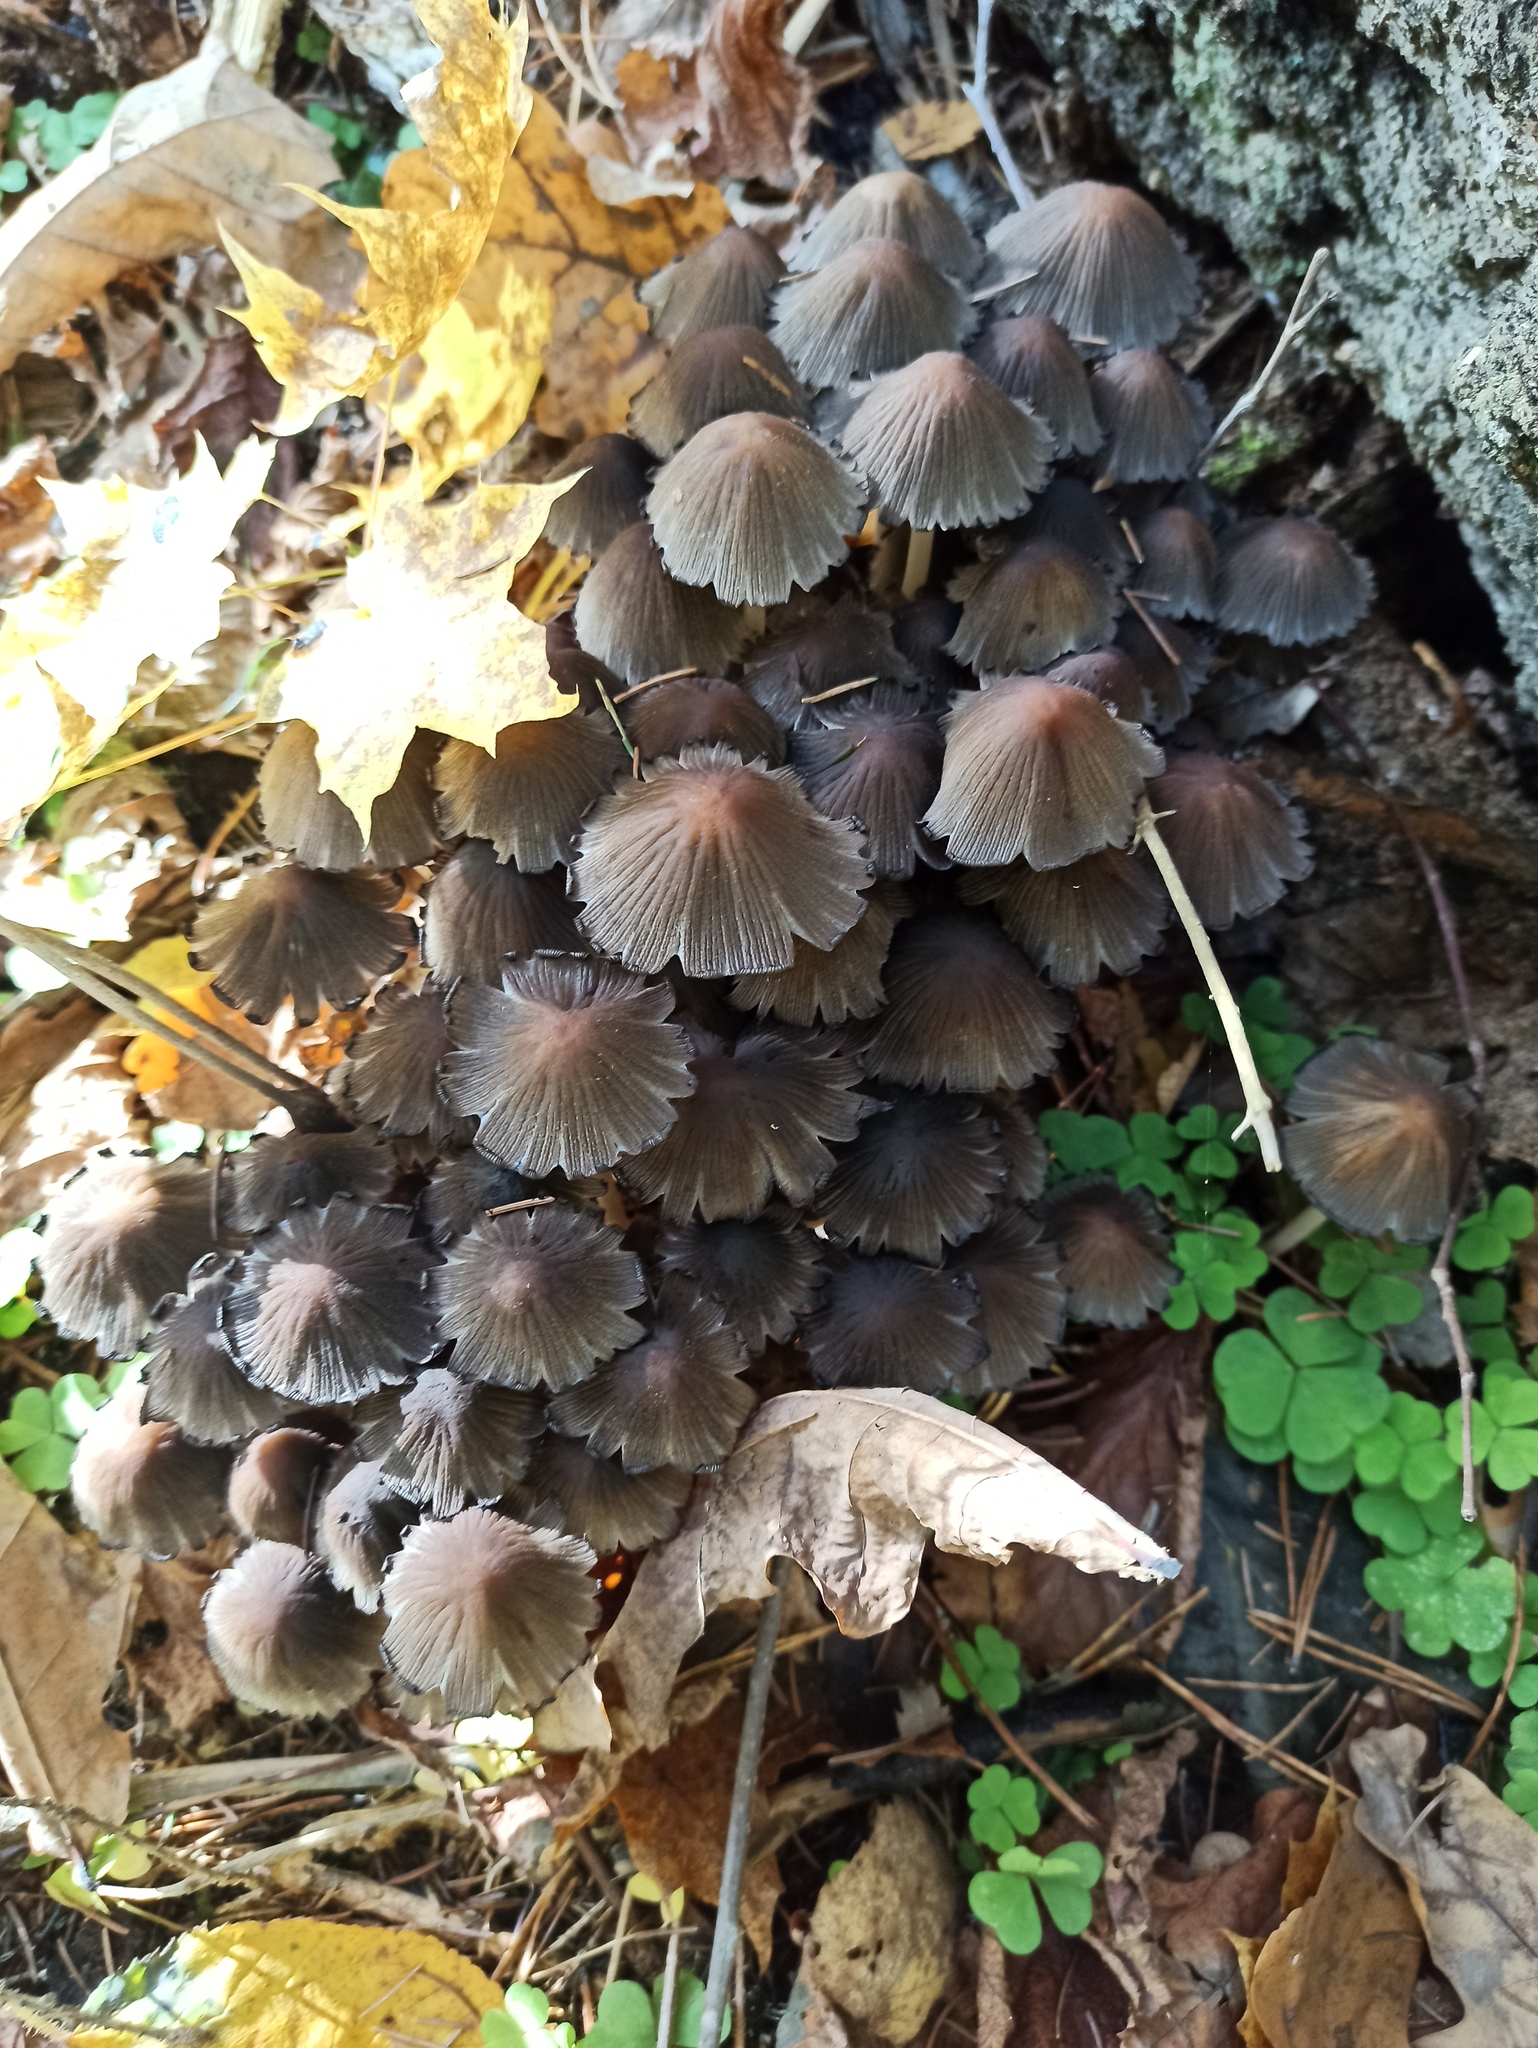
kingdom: Fungi
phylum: Basidiomycota
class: Agaricomycetes
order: Agaricales
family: Psathyrellaceae
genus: Coprinellus
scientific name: Coprinellus disseminatus
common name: Fairies' bonnets
